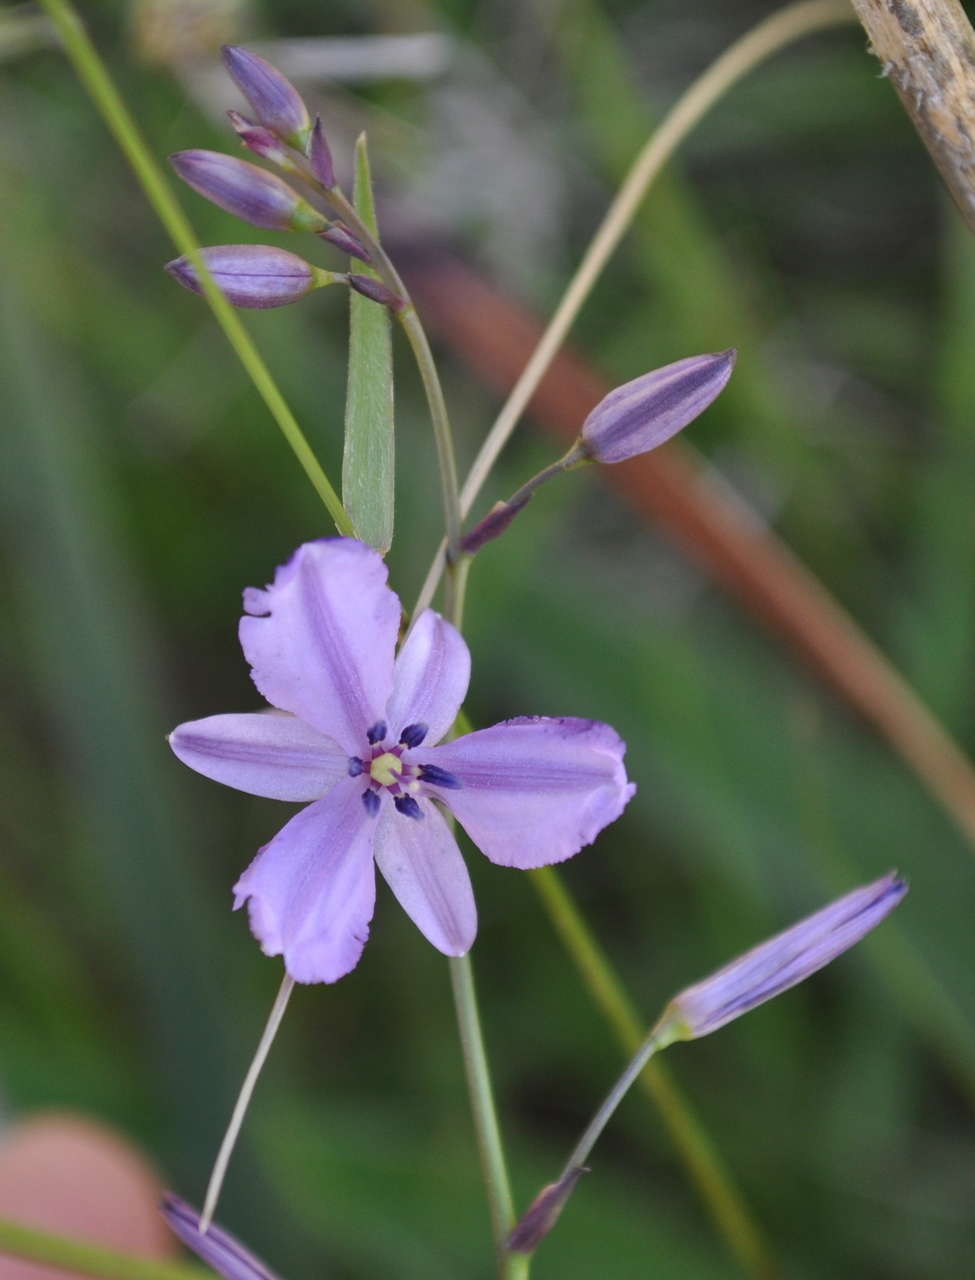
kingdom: Plantae
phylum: Tracheophyta
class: Liliopsida
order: Asparagales
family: Asparagaceae
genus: Arthropodium
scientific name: Arthropodium strictum
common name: Chocolate-lily
